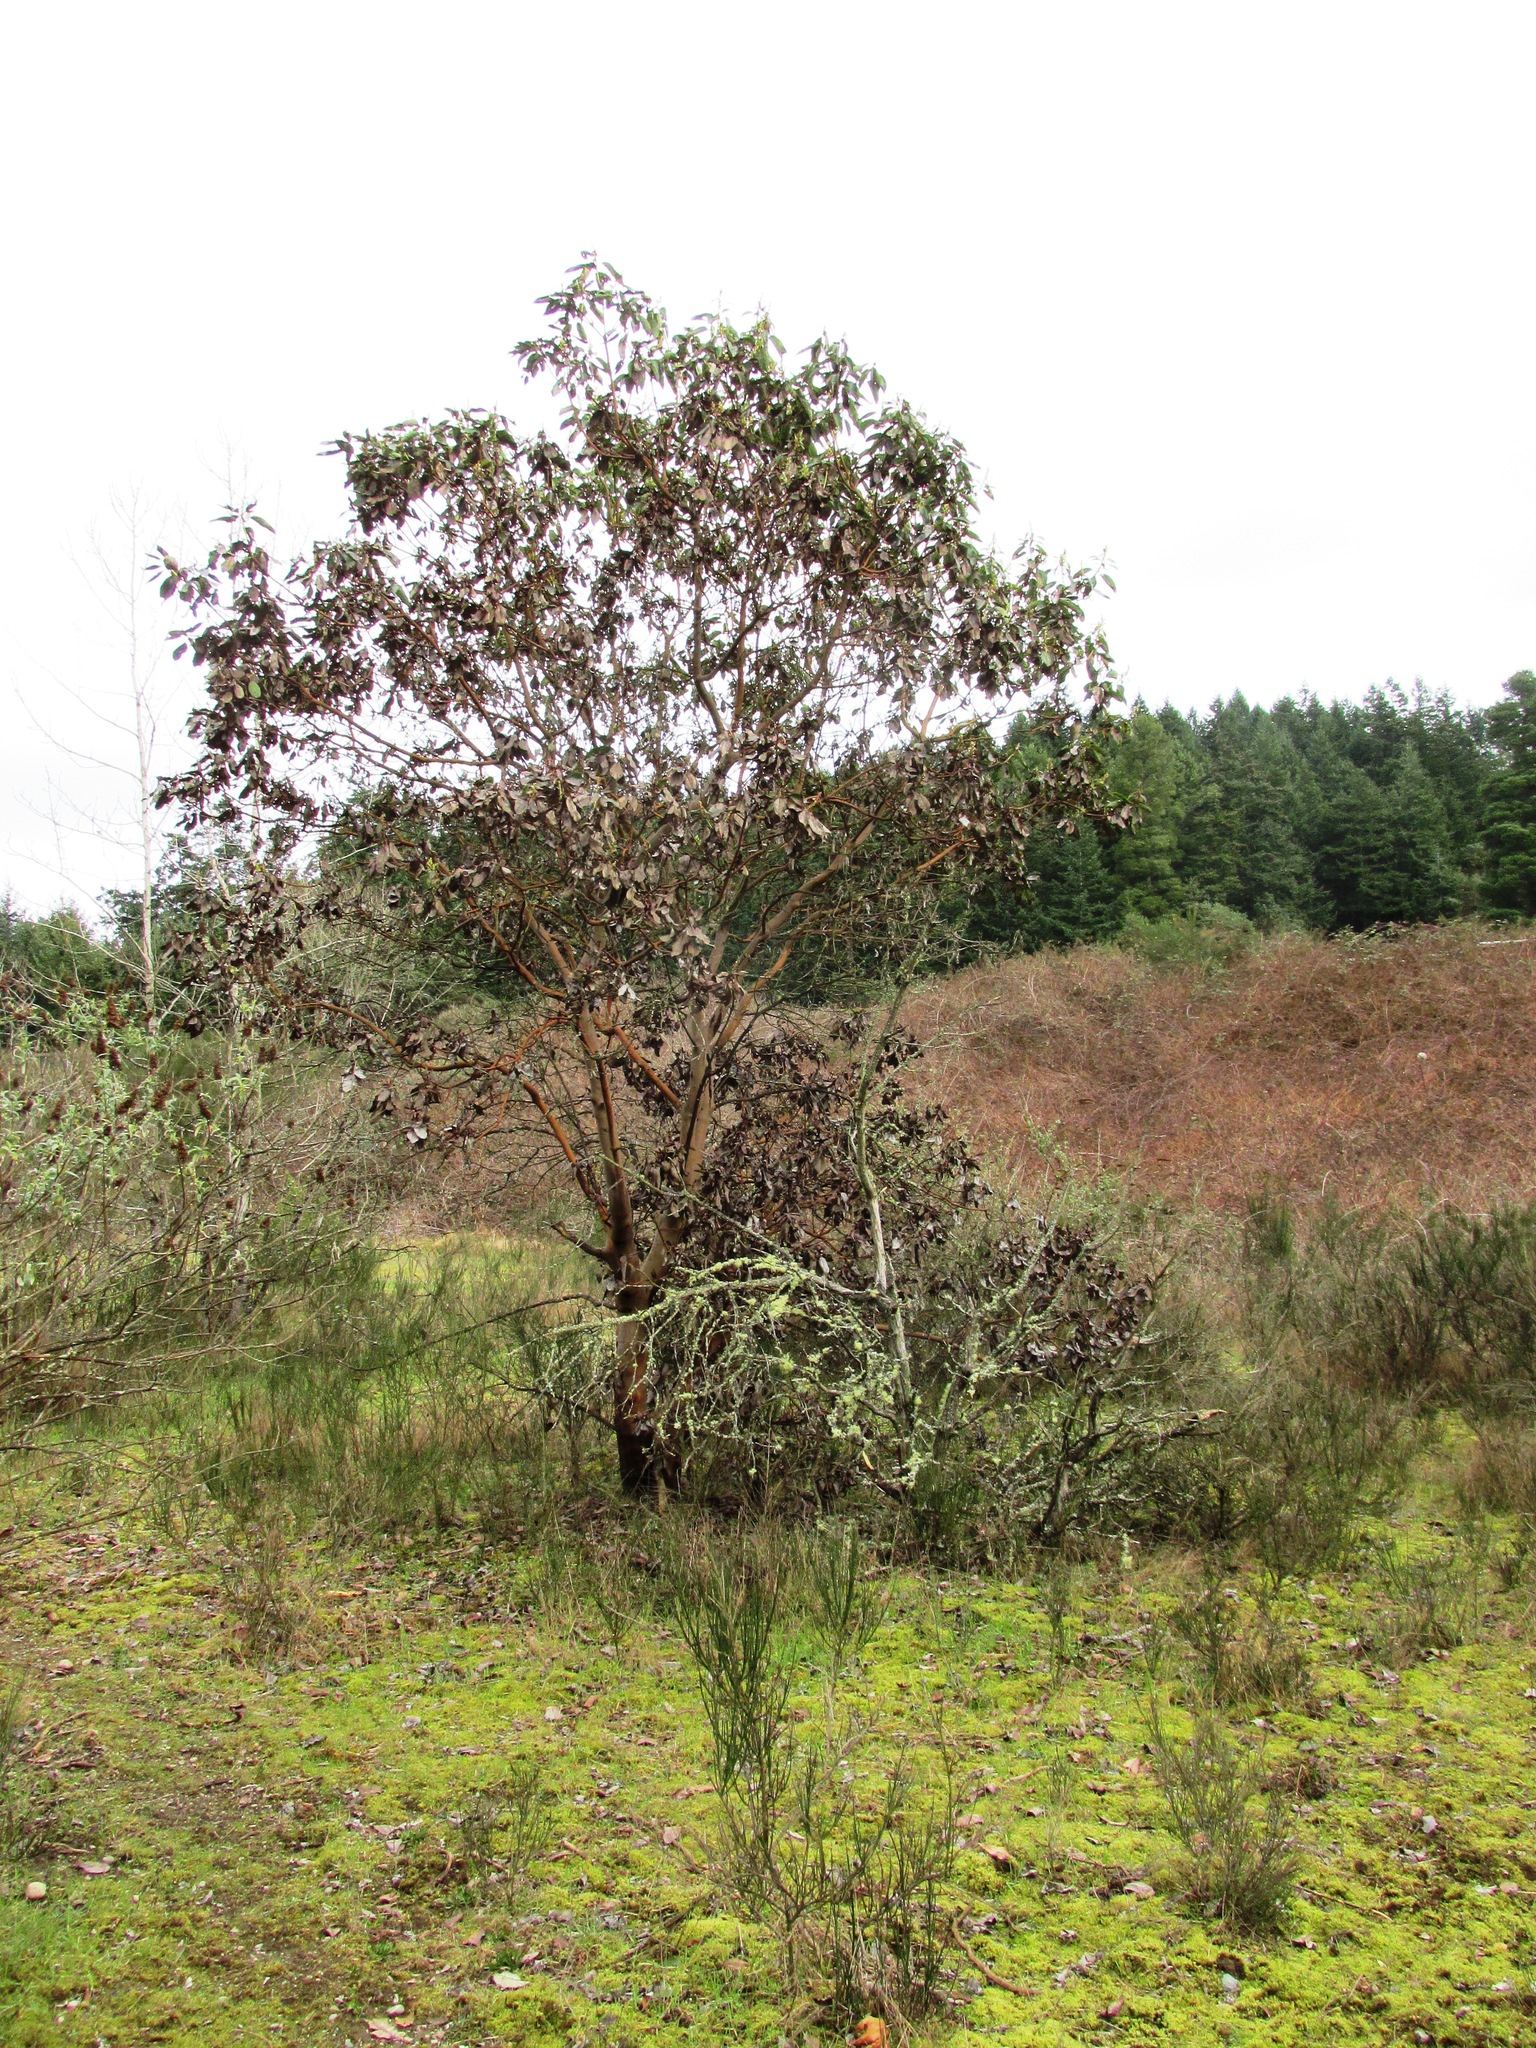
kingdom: Plantae
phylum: Tracheophyta
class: Magnoliopsida
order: Ericales
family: Ericaceae
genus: Arbutus
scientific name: Arbutus menziesii
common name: Pacific madrone
